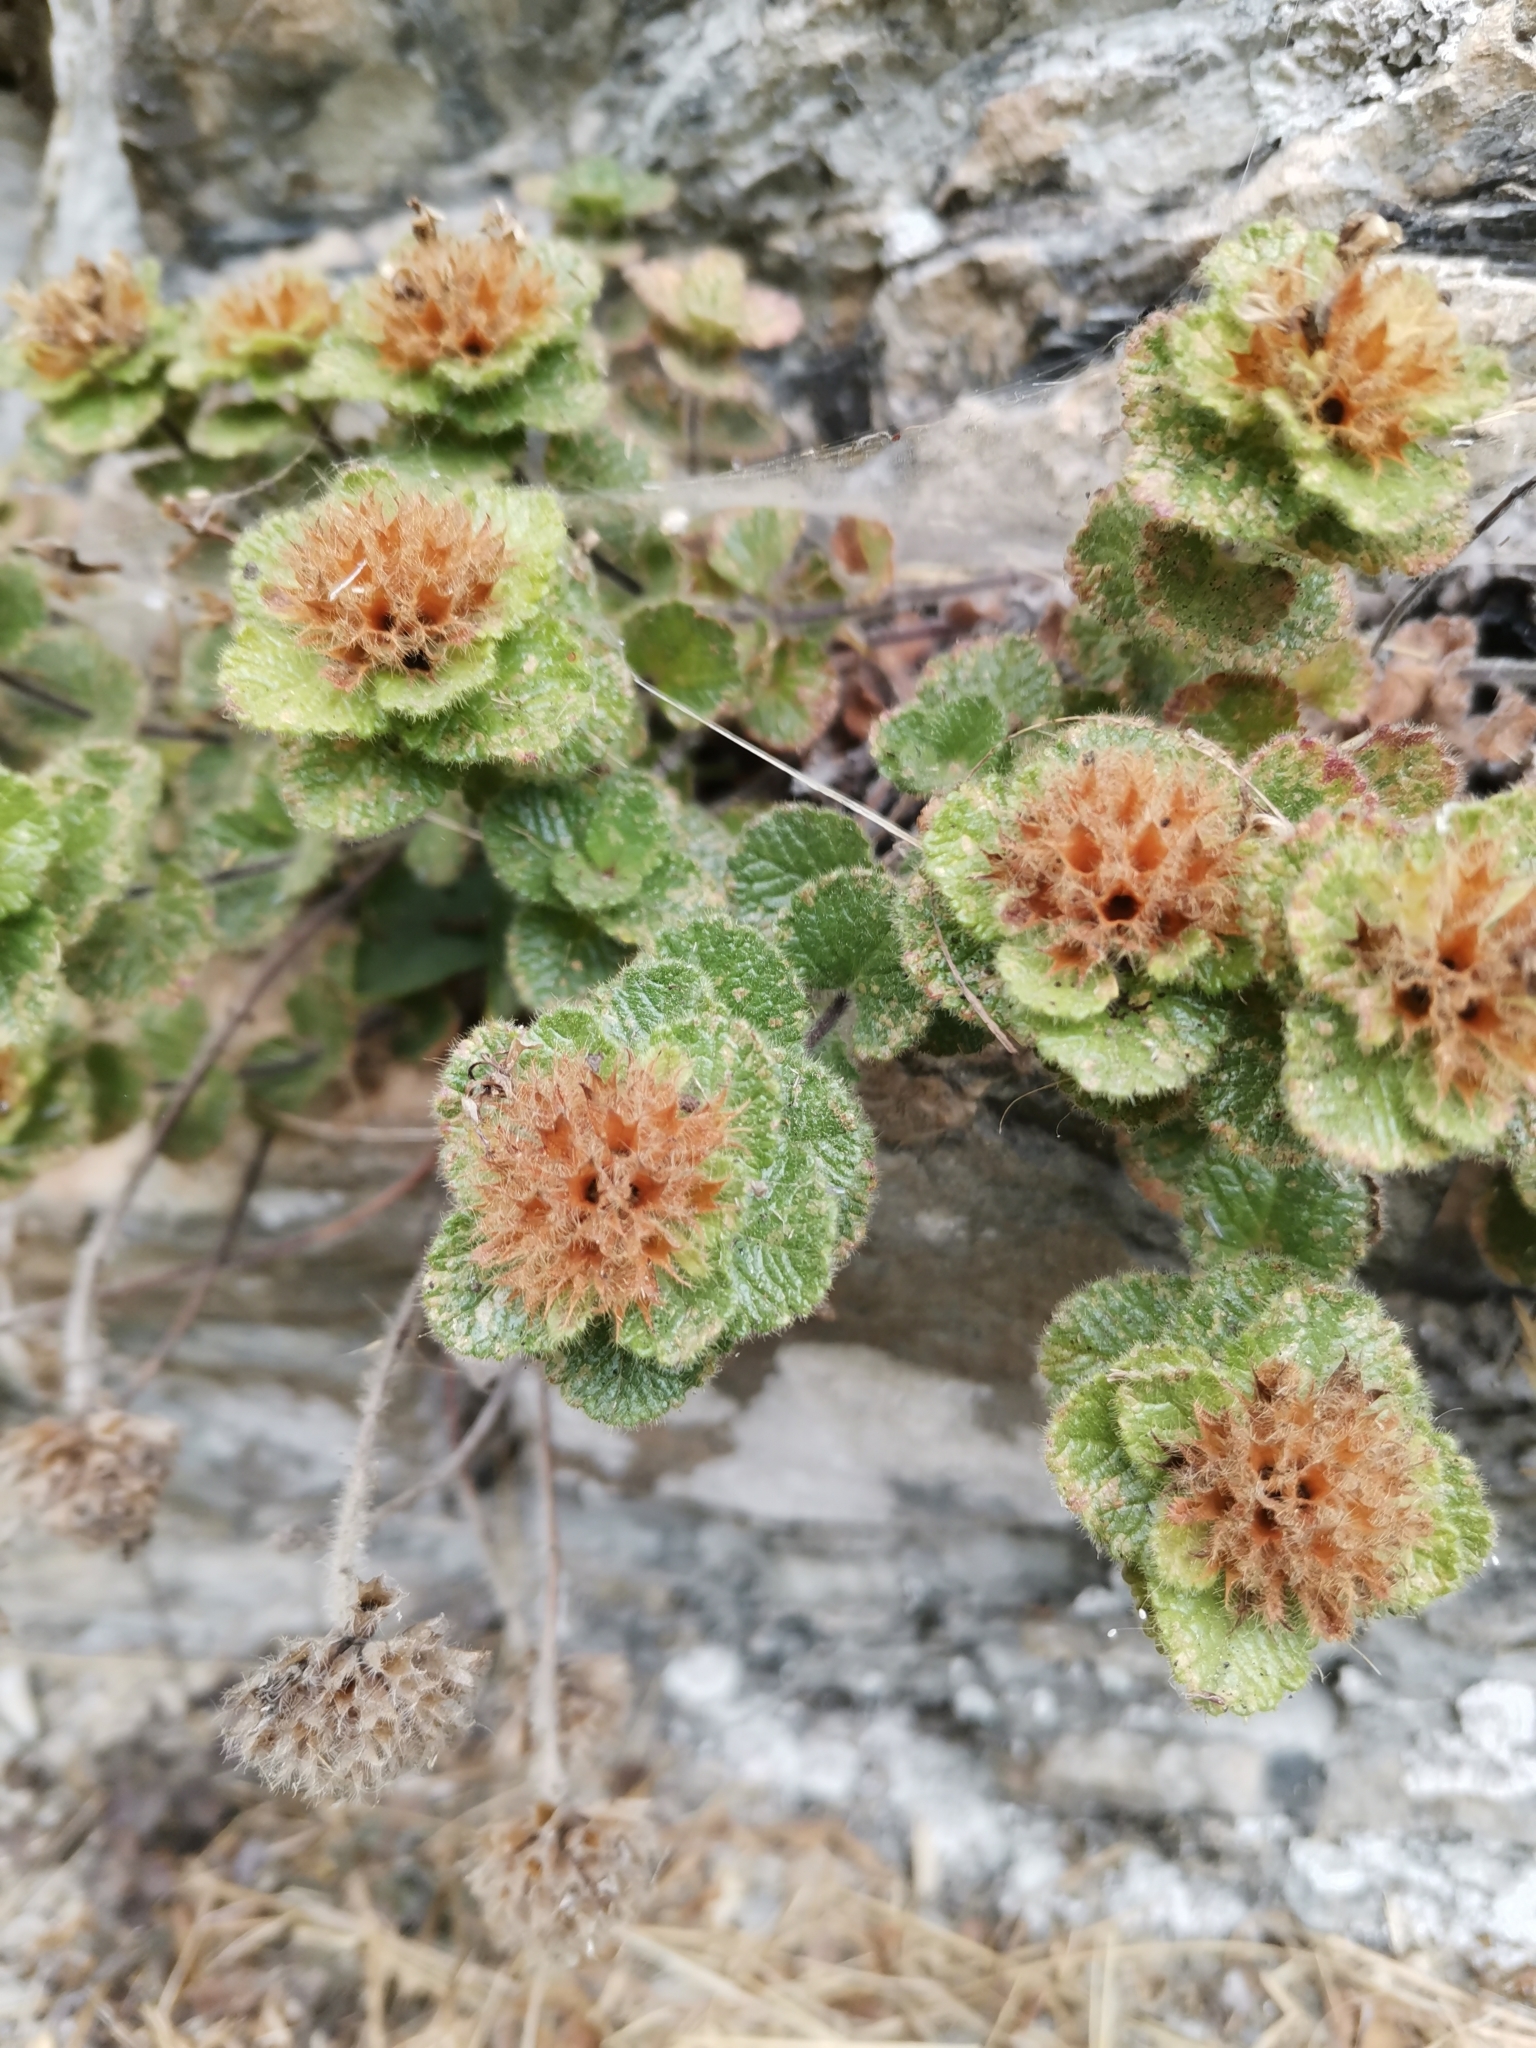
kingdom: Plantae
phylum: Tracheophyta
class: Magnoliopsida
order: Lamiales
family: Lamiaceae
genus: Teucrium
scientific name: Teucrium pyrenaicum
